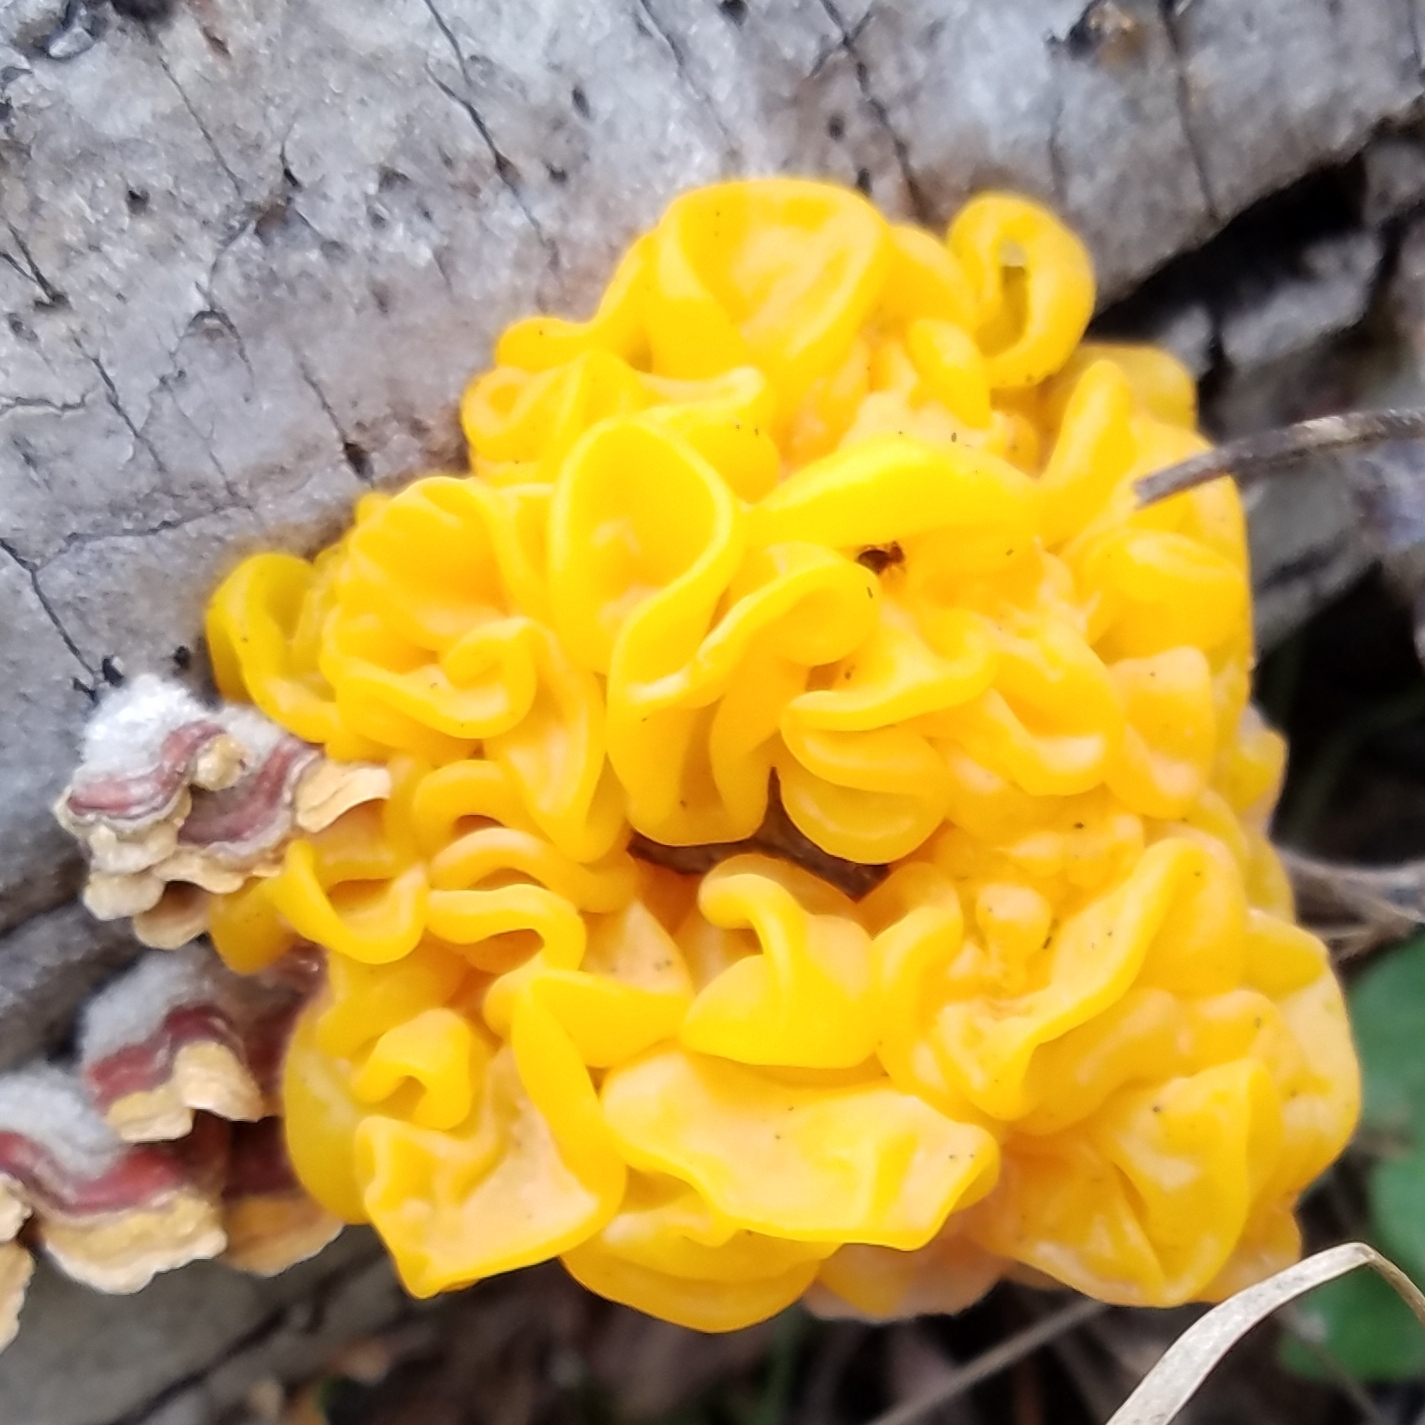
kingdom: Fungi
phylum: Basidiomycota
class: Tremellomycetes
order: Tremellales
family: Naemateliaceae
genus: Naematelia
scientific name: Naematelia aurantia
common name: Golden ear
